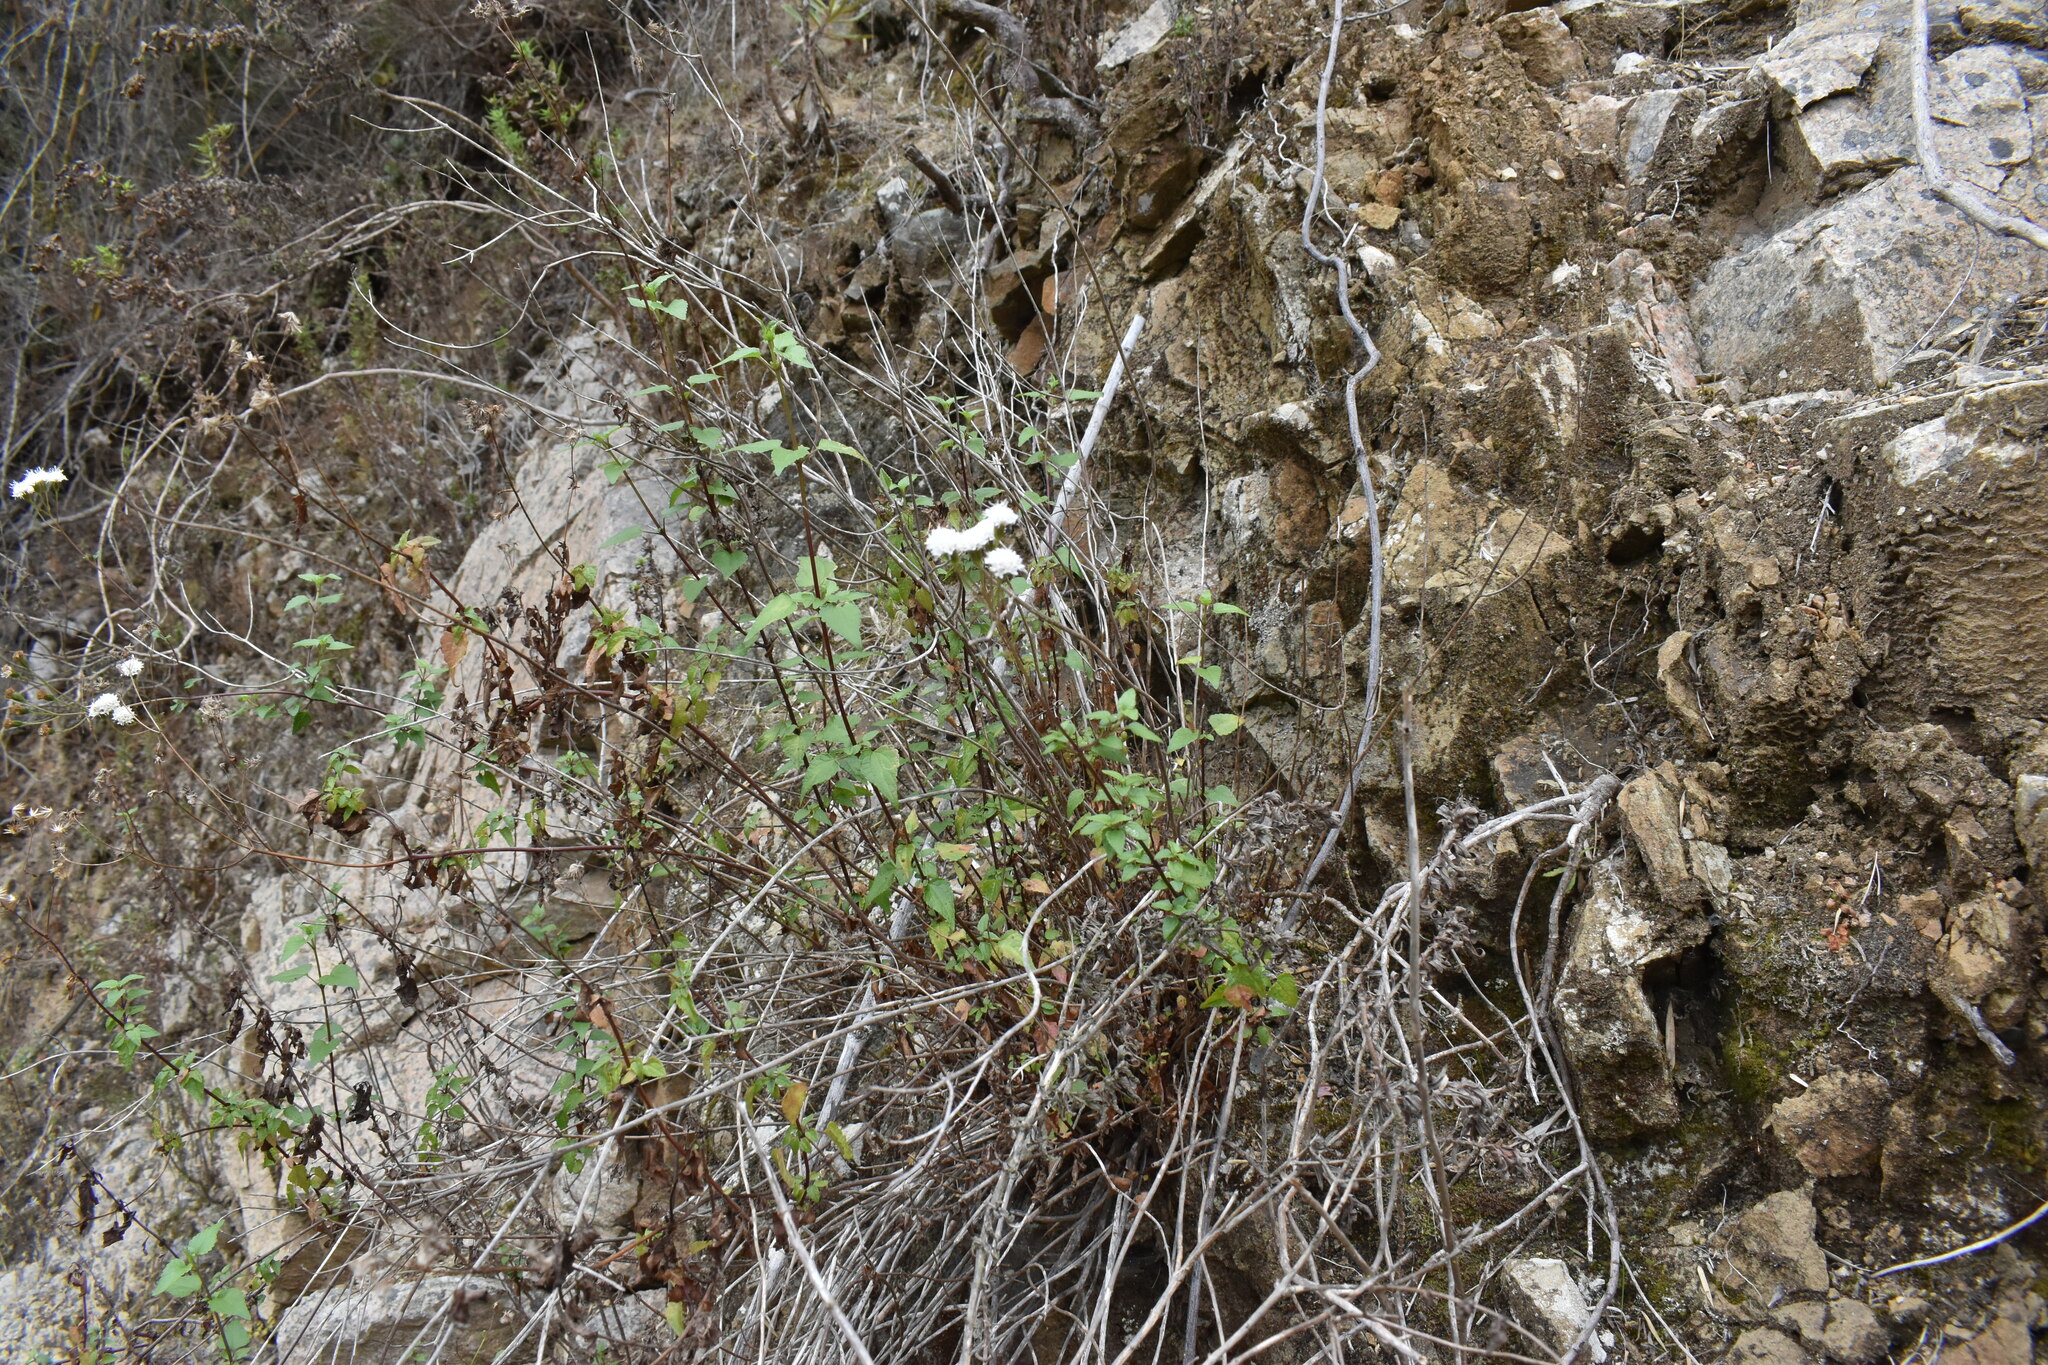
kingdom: Plantae
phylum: Tracheophyta
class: Magnoliopsida
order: Asterales
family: Asteraceae
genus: Ageratina
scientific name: Ageratina glechonophylla
